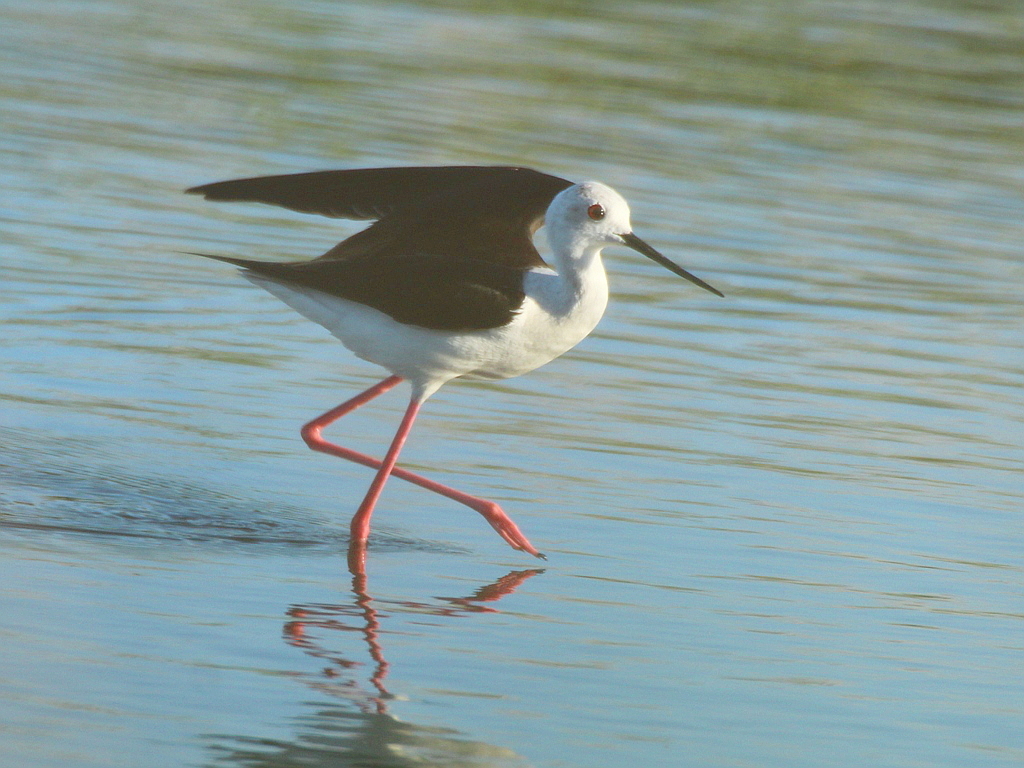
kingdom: Animalia
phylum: Chordata
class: Aves
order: Charadriiformes
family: Recurvirostridae
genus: Himantopus
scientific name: Himantopus himantopus
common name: Black-winged stilt
